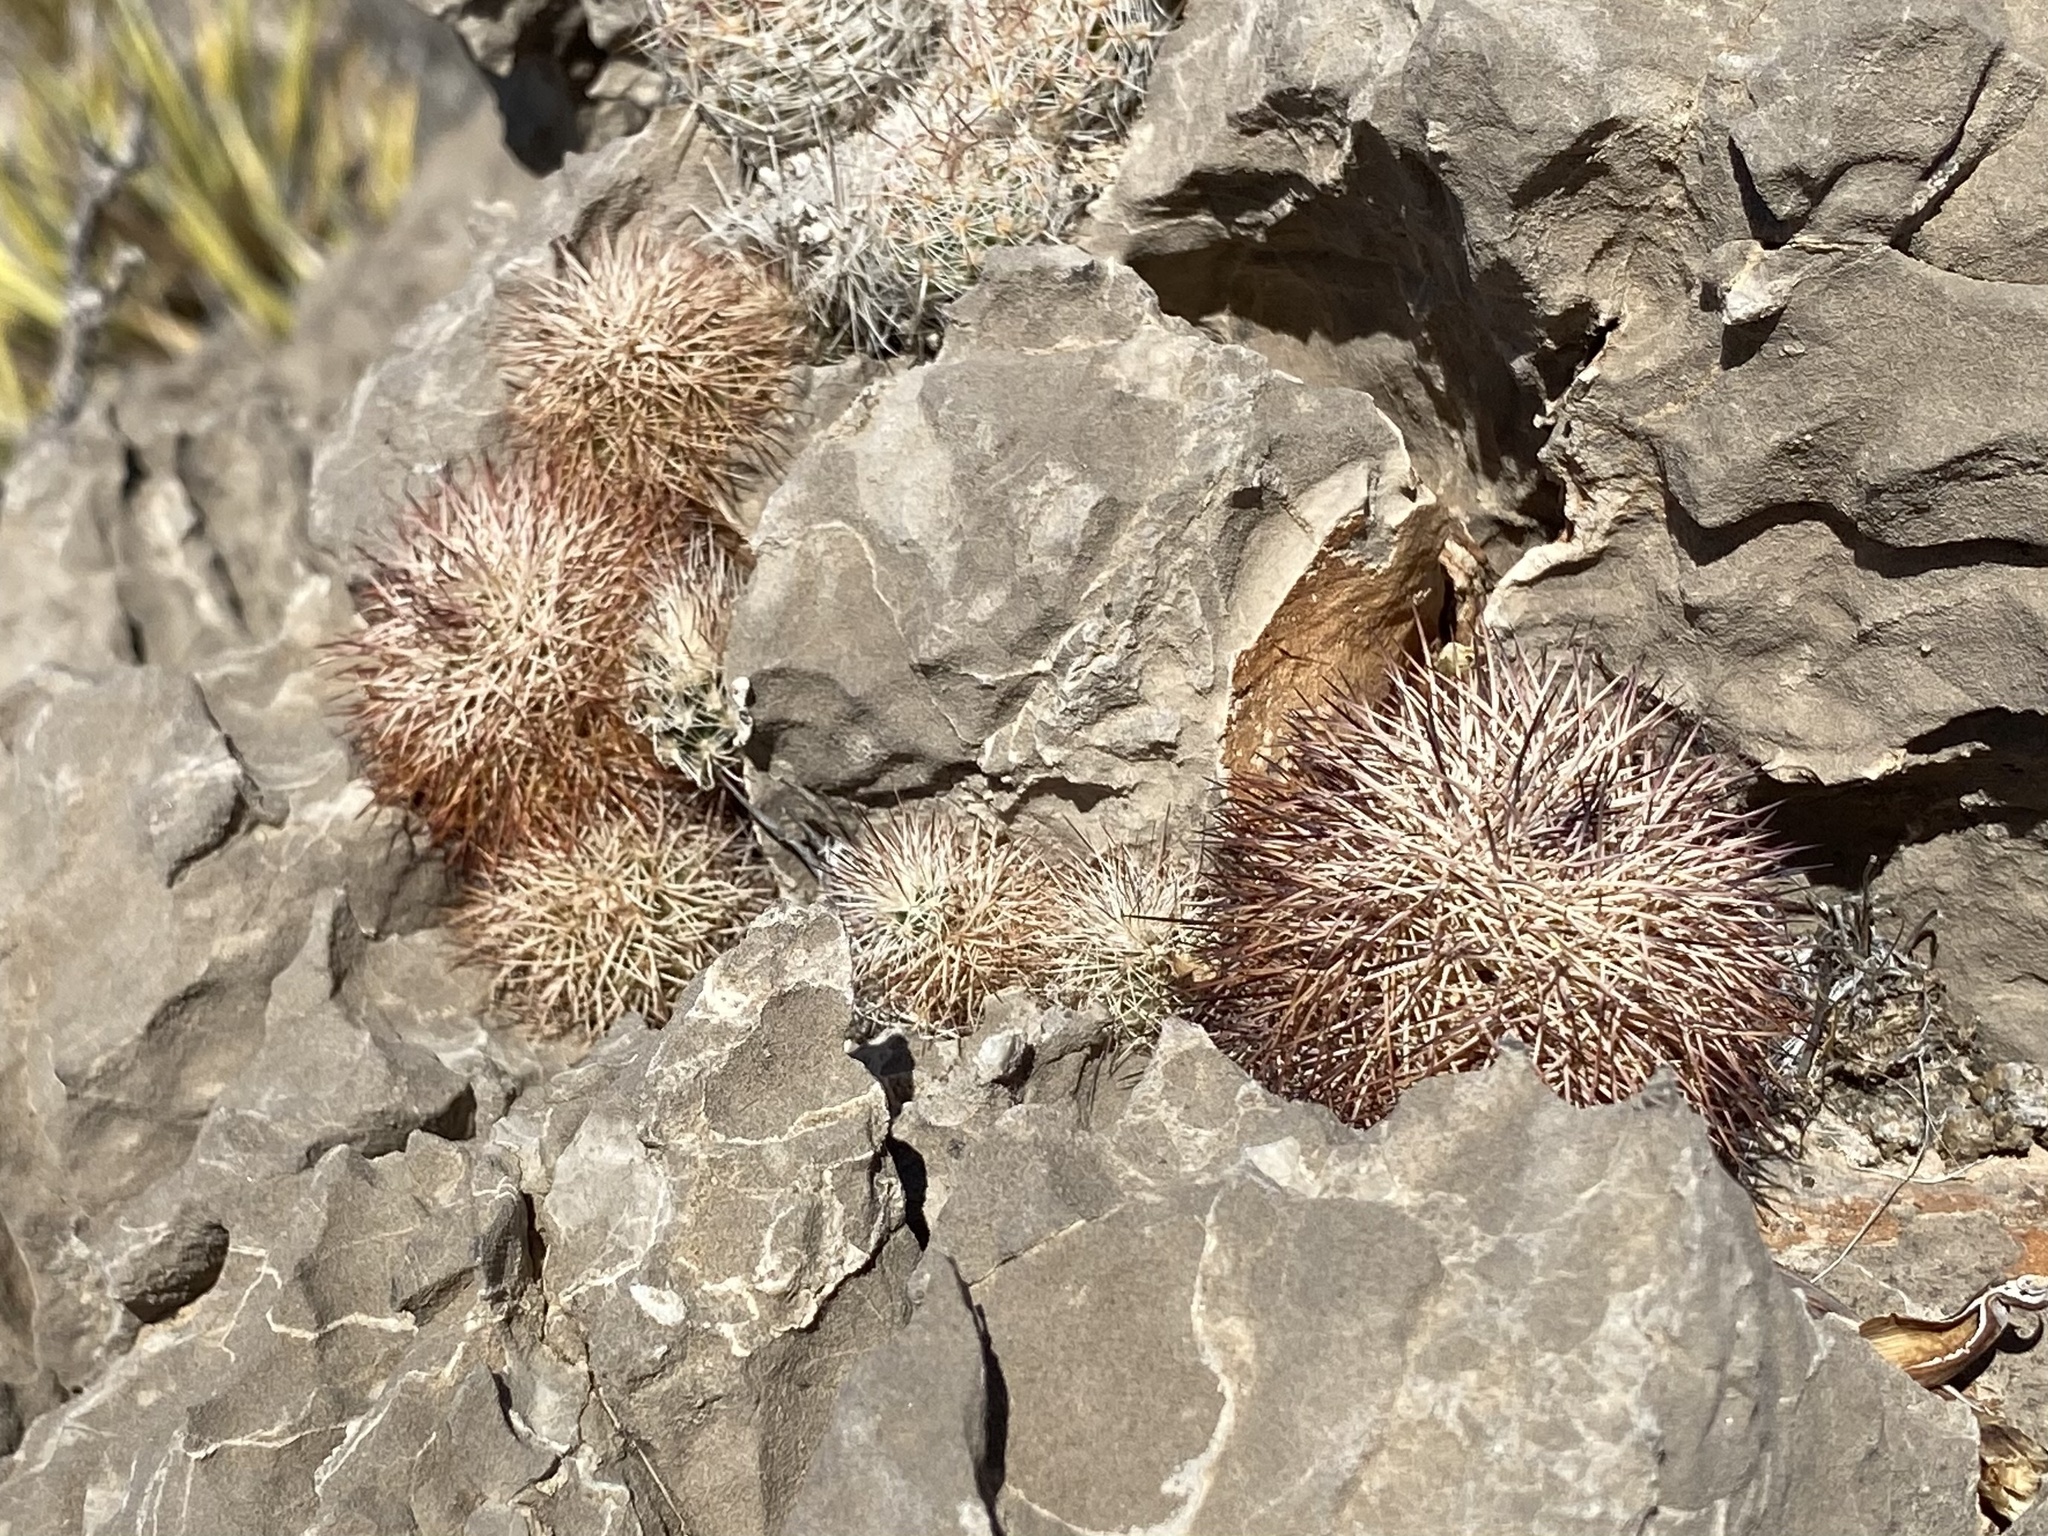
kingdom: Plantae
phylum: Tracheophyta
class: Magnoliopsida
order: Caryophyllales
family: Cactaceae
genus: Echinocereus
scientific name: Echinocereus dasyacanthus
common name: Spiny hedgehog cactus
